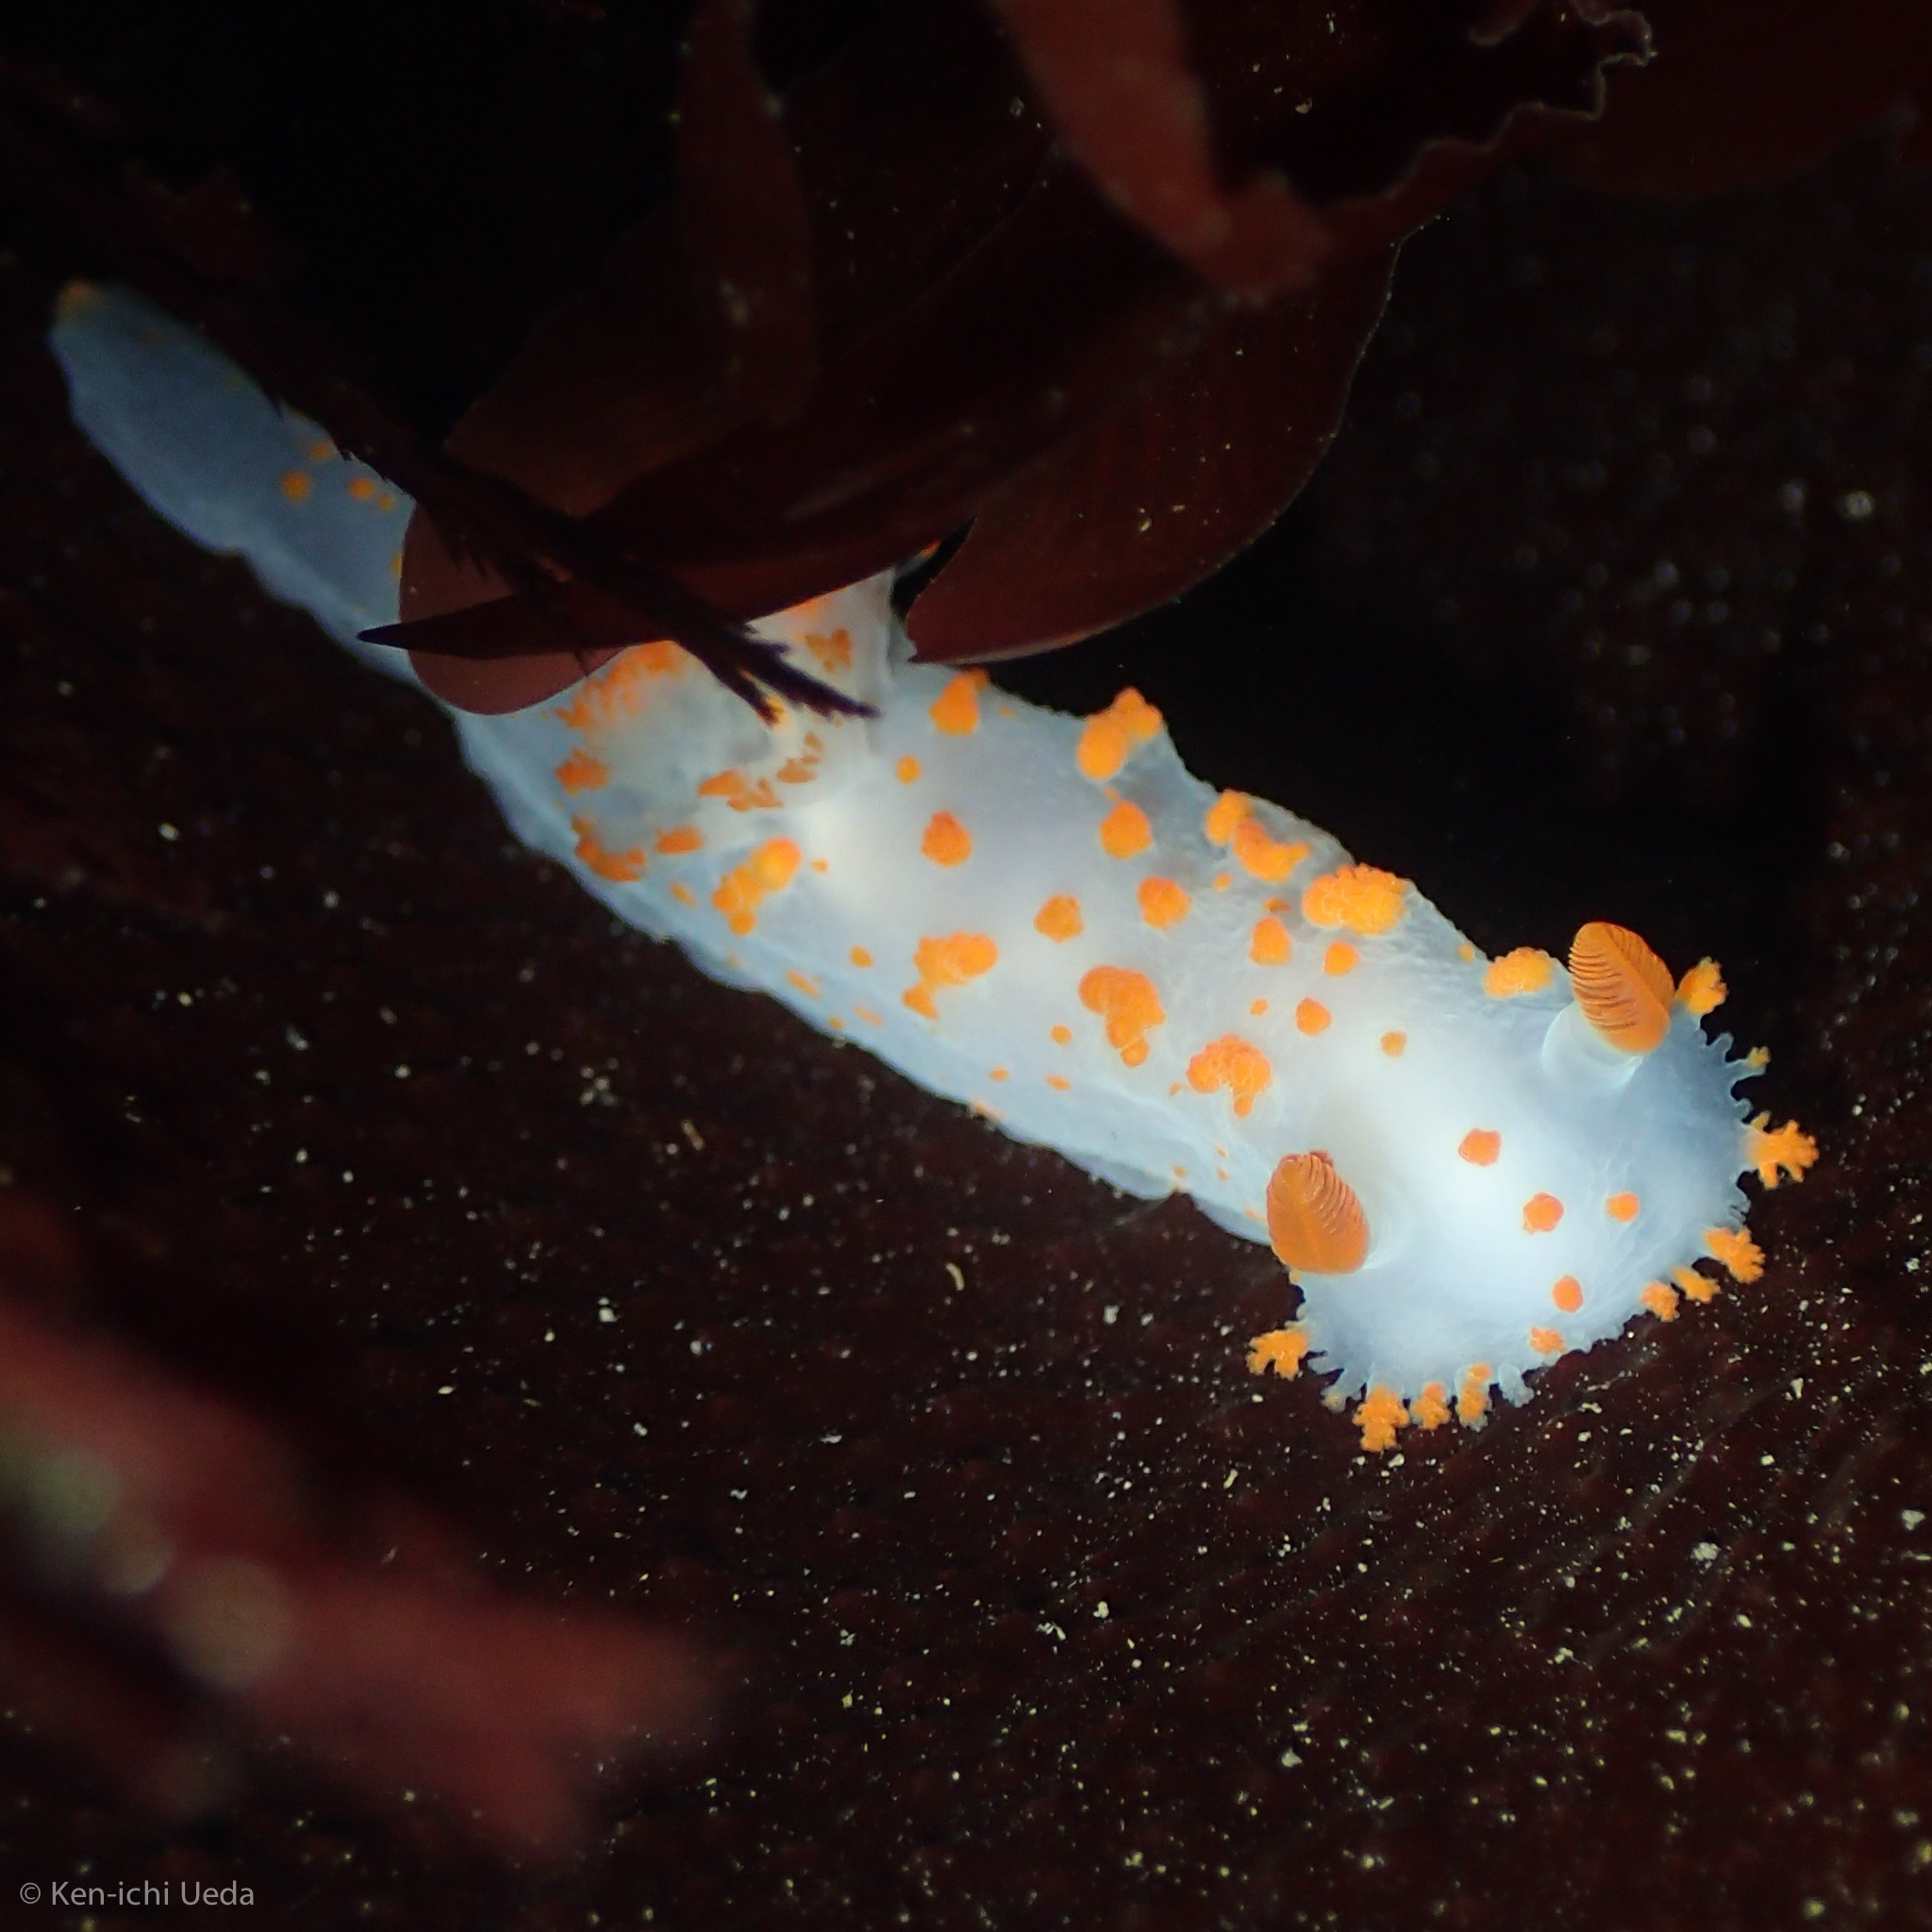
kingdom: Animalia
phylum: Mollusca
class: Gastropoda
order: Nudibranchia
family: Polyceridae
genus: Triopha
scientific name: Triopha catalinae
